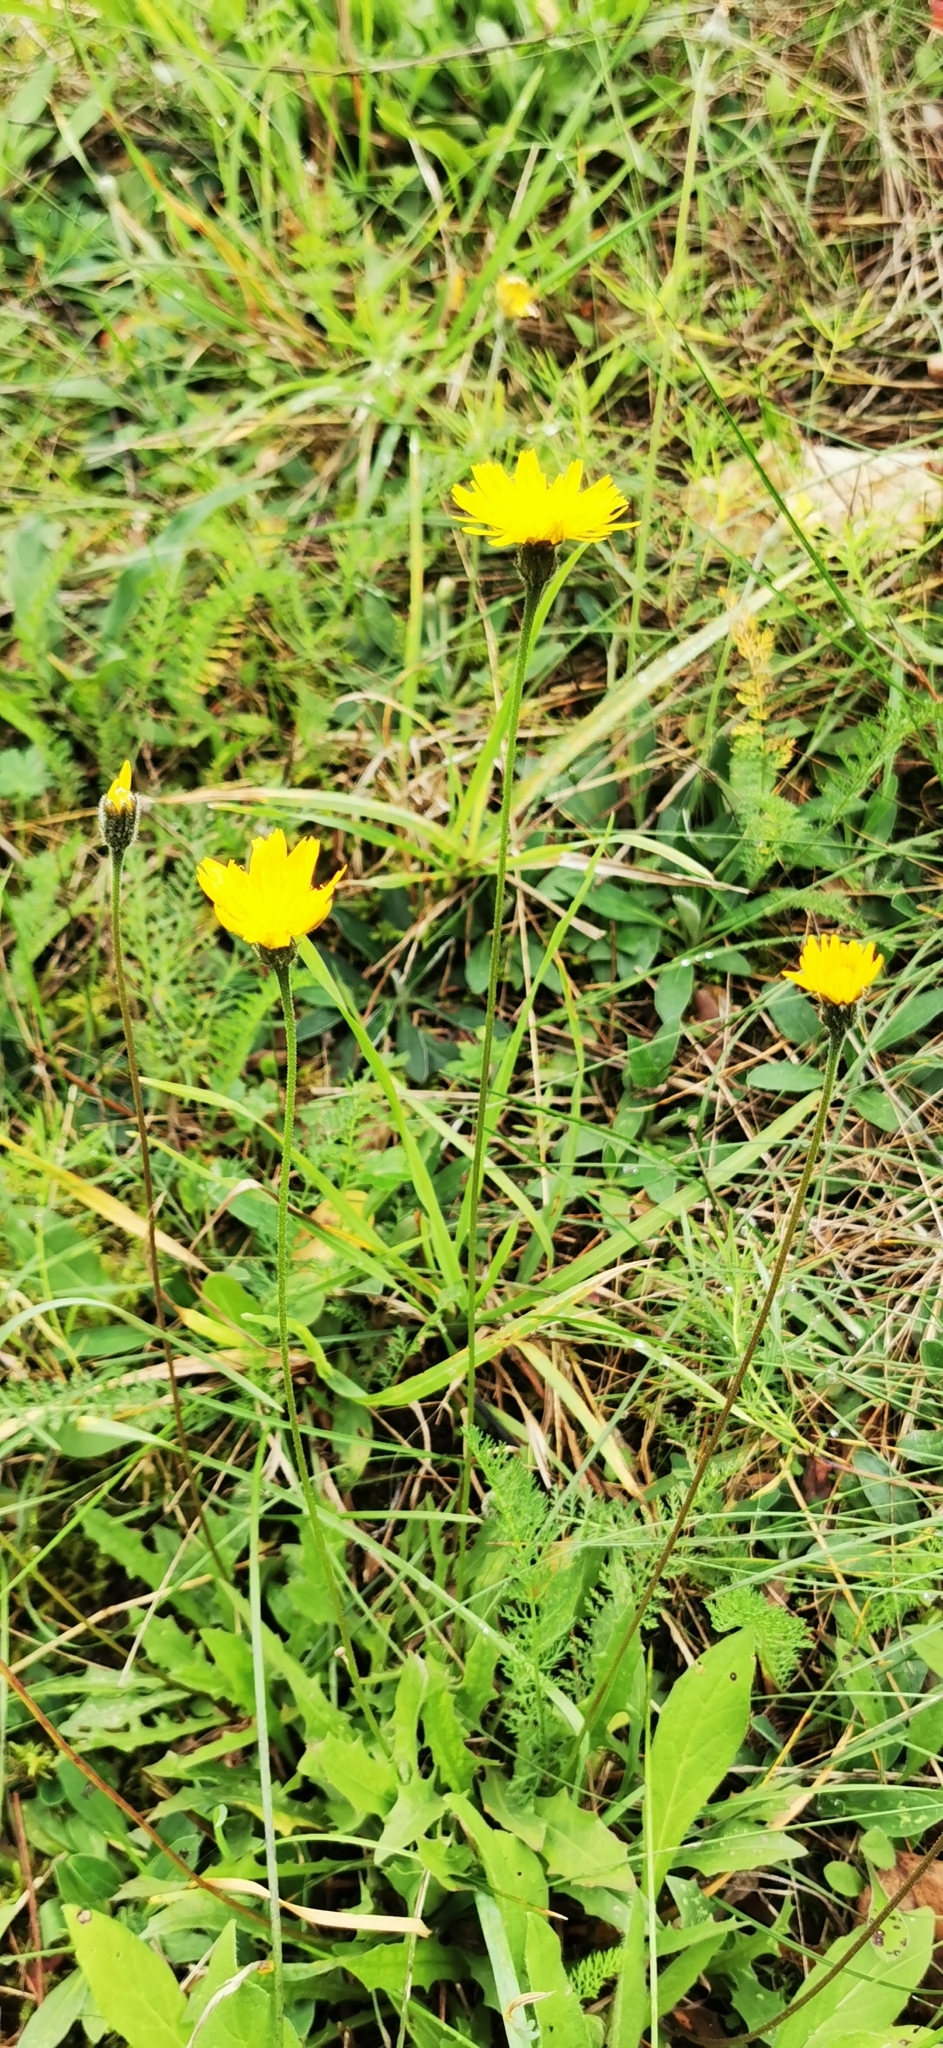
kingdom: Plantae
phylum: Tracheophyta
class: Magnoliopsida
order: Asterales
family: Asteraceae
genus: Leontodon
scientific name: Leontodon hispidus
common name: Rough hawkbit
